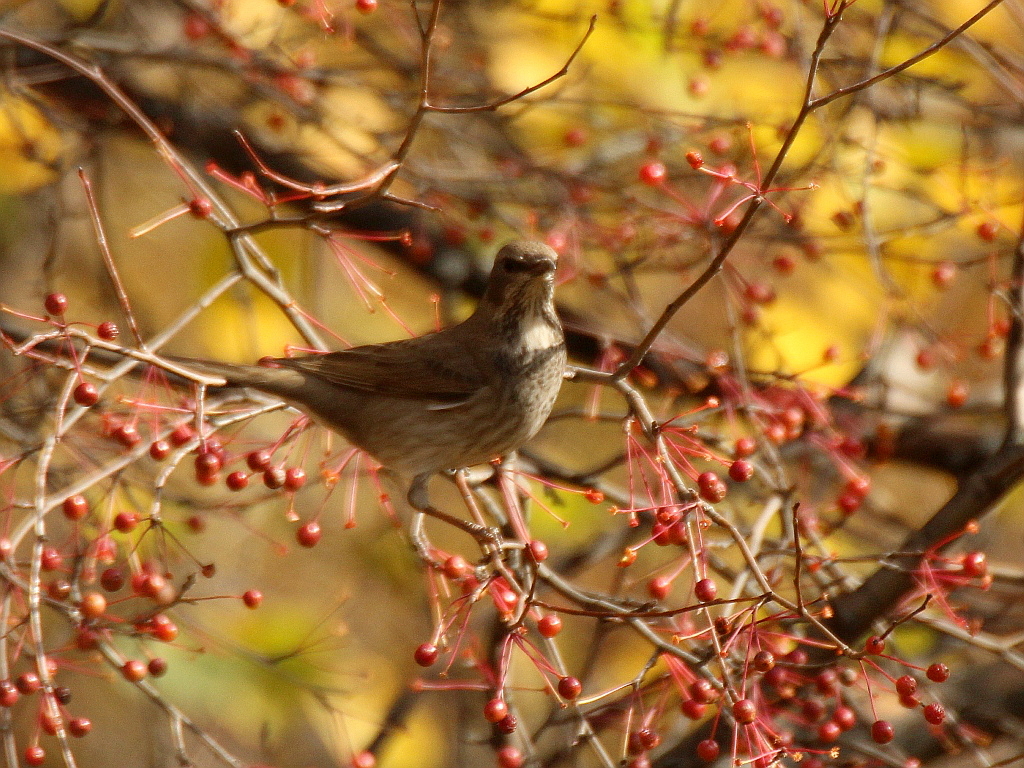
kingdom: Animalia
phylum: Chordata
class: Aves
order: Passeriformes
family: Turdidae
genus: Turdus
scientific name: Turdus atrogularis
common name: Black-throated thrush
